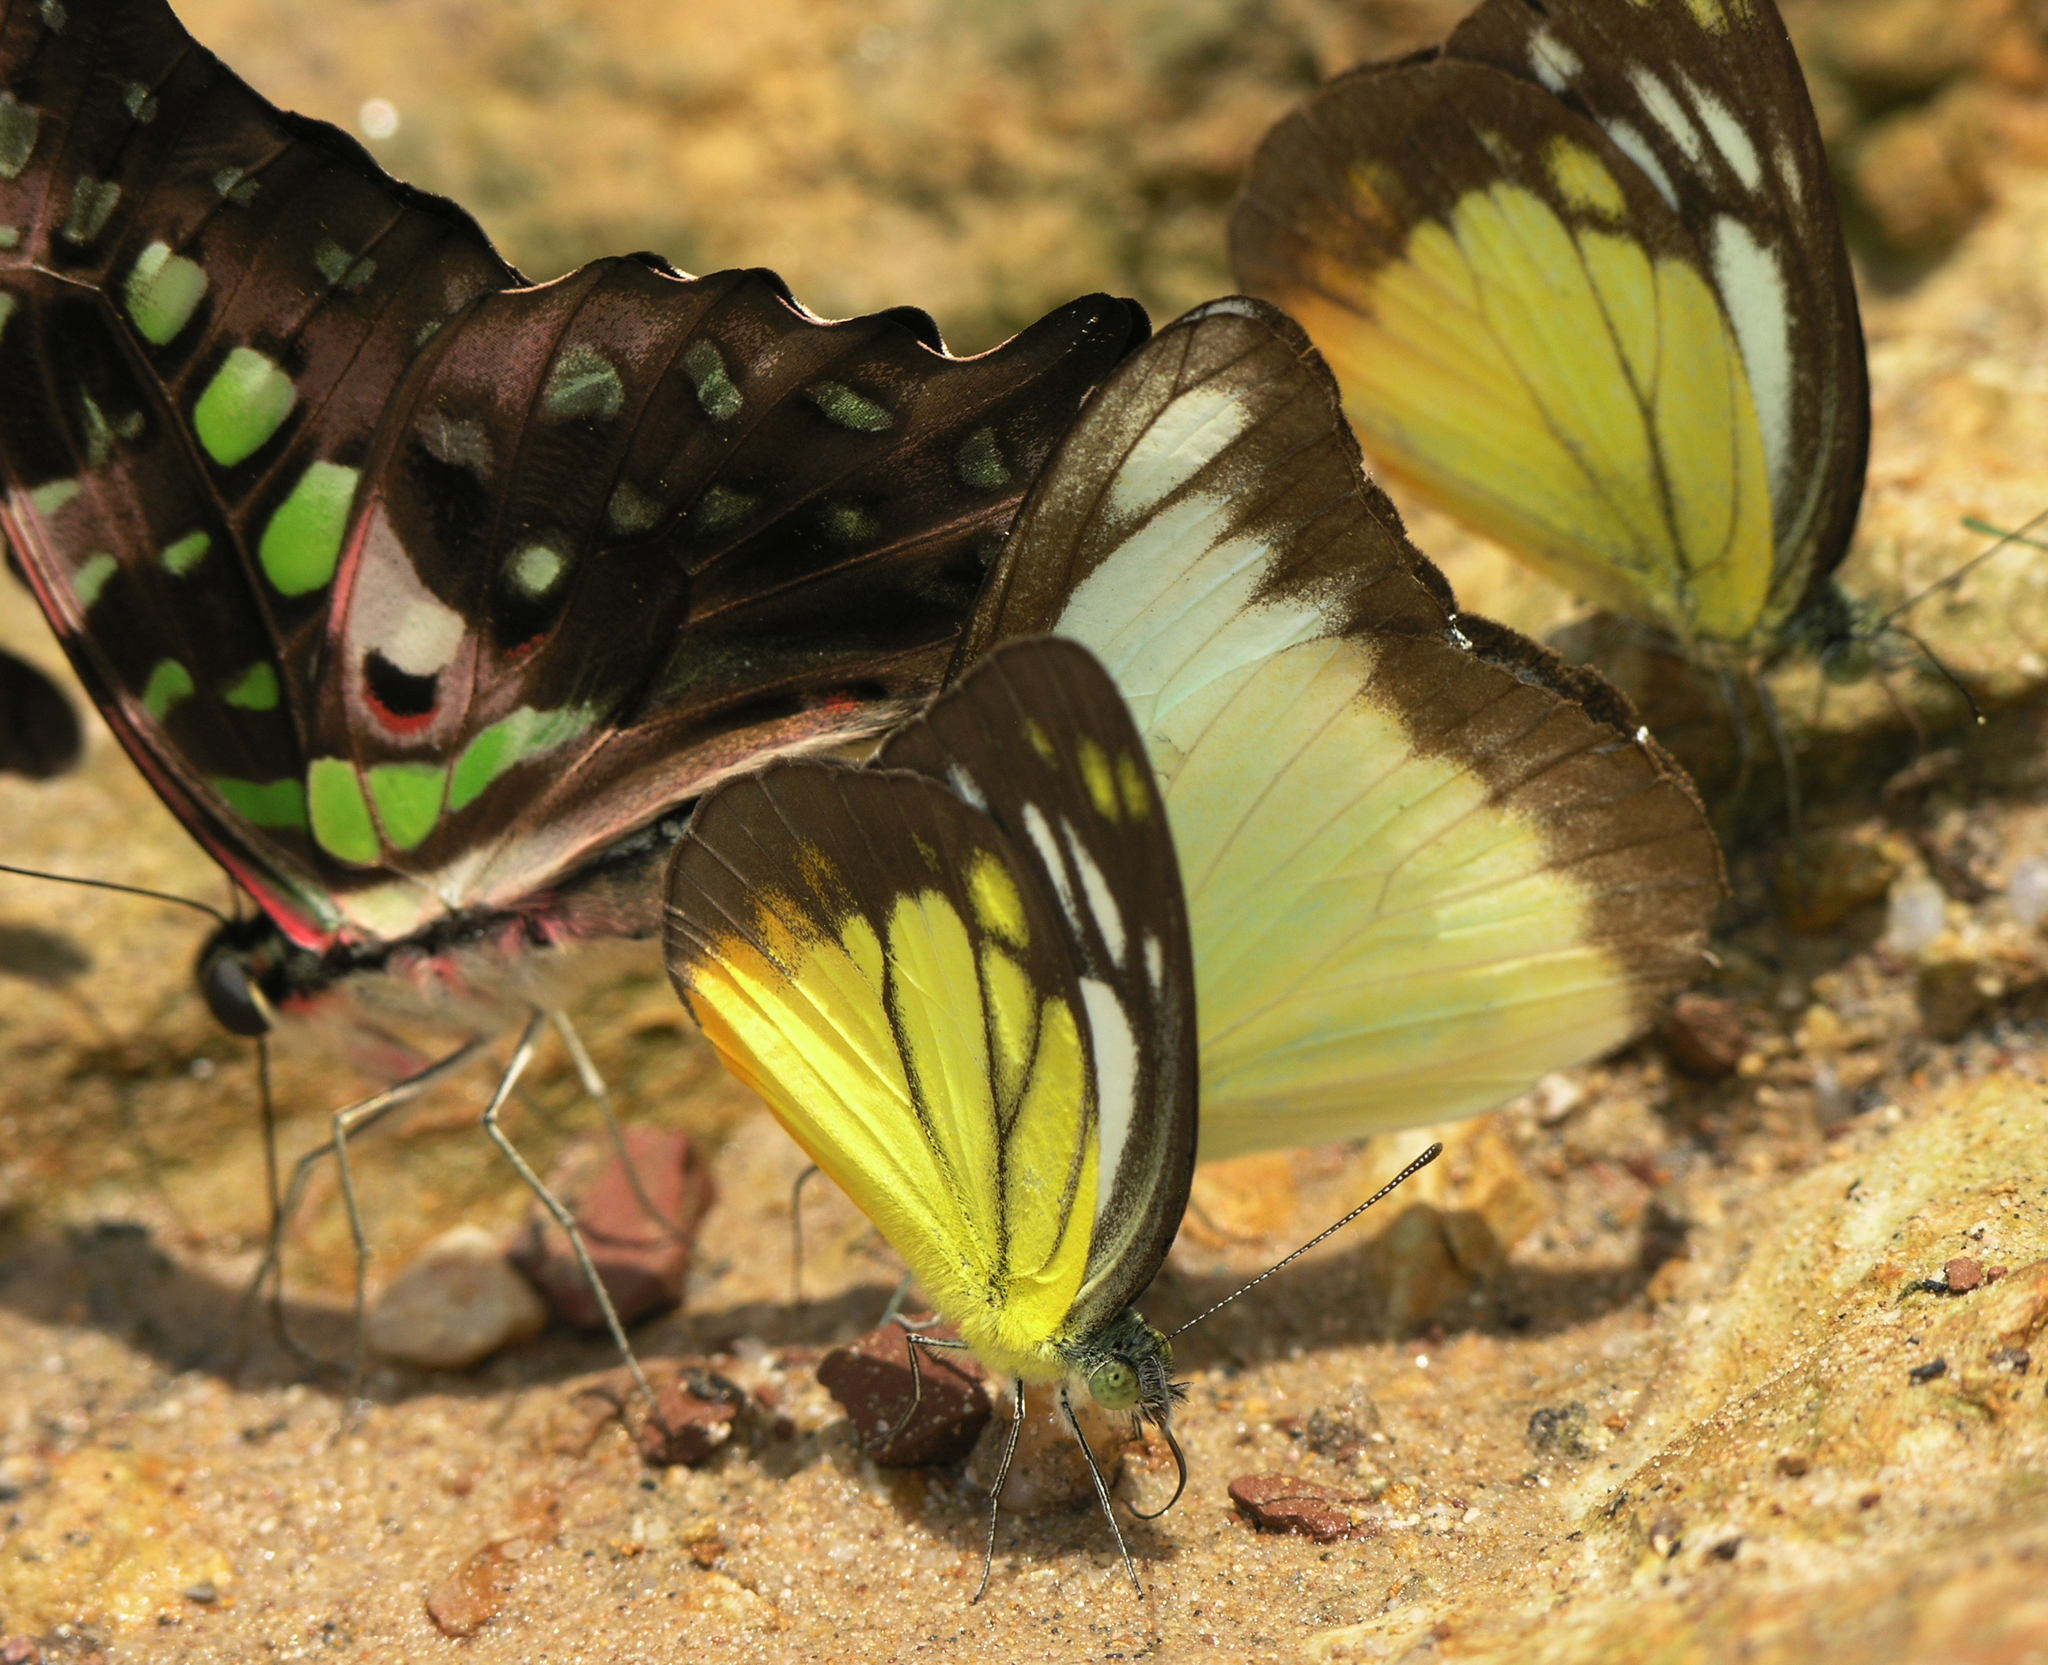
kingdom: Animalia
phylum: Arthropoda
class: Insecta
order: Lepidoptera
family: Pieridae
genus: Cepora
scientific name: Cepora iudith
